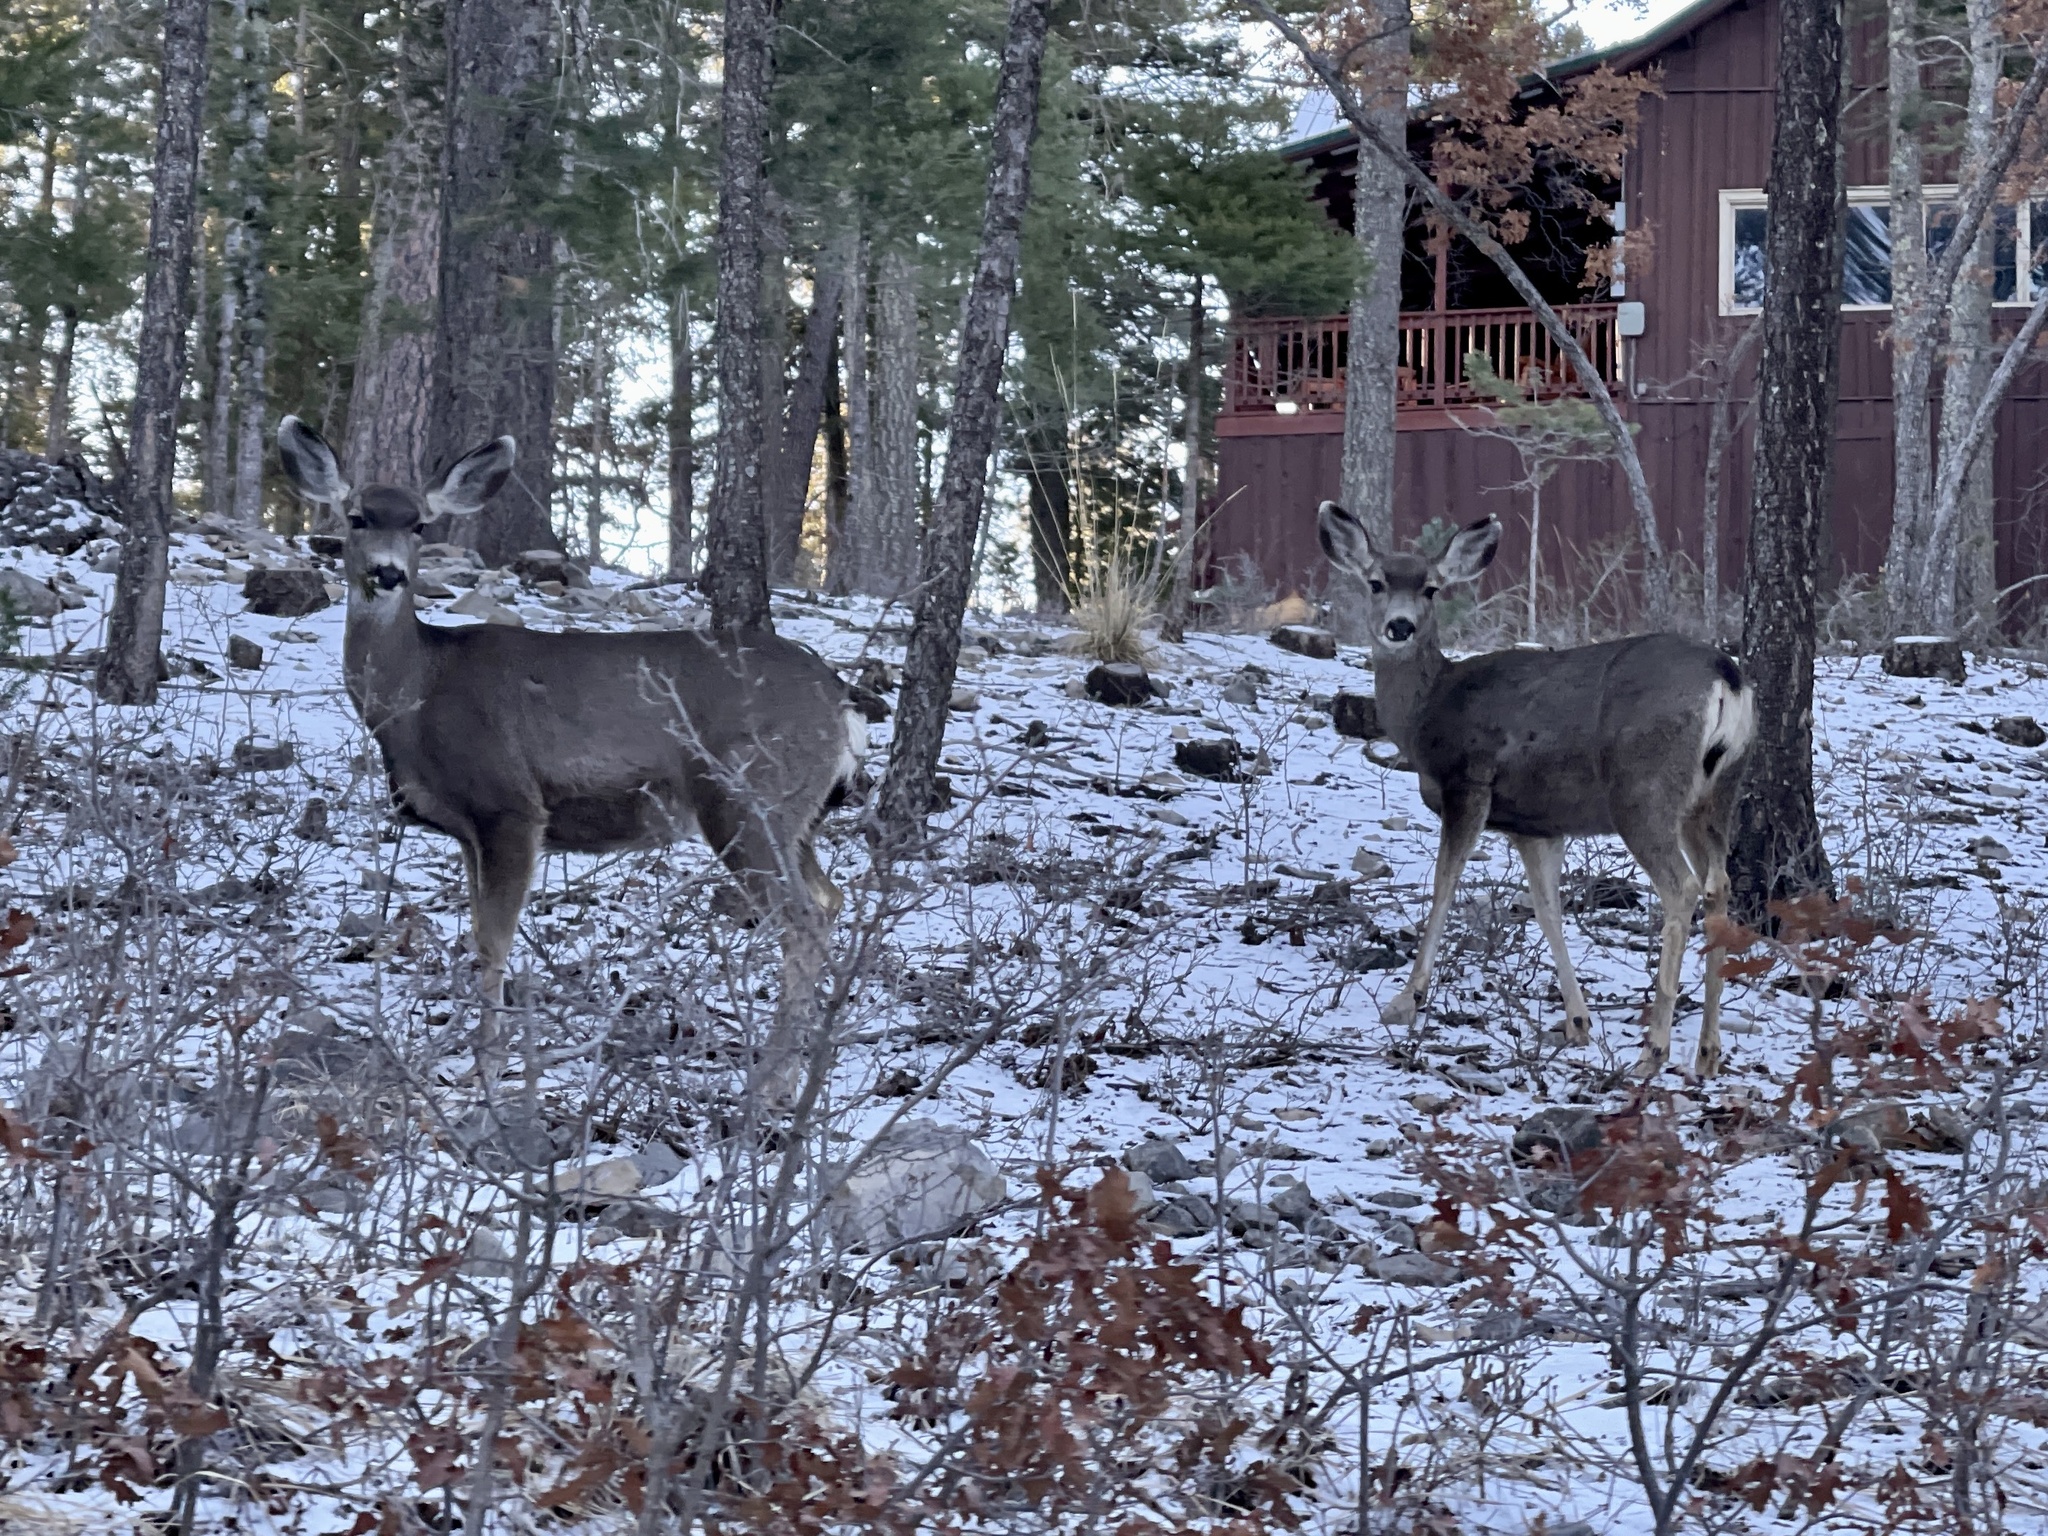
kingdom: Animalia
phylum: Chordata
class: Mammalia
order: Artiodactyla
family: Cervidae
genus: Odocoileus
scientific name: Odocoileus hemionus
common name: Mule deer
